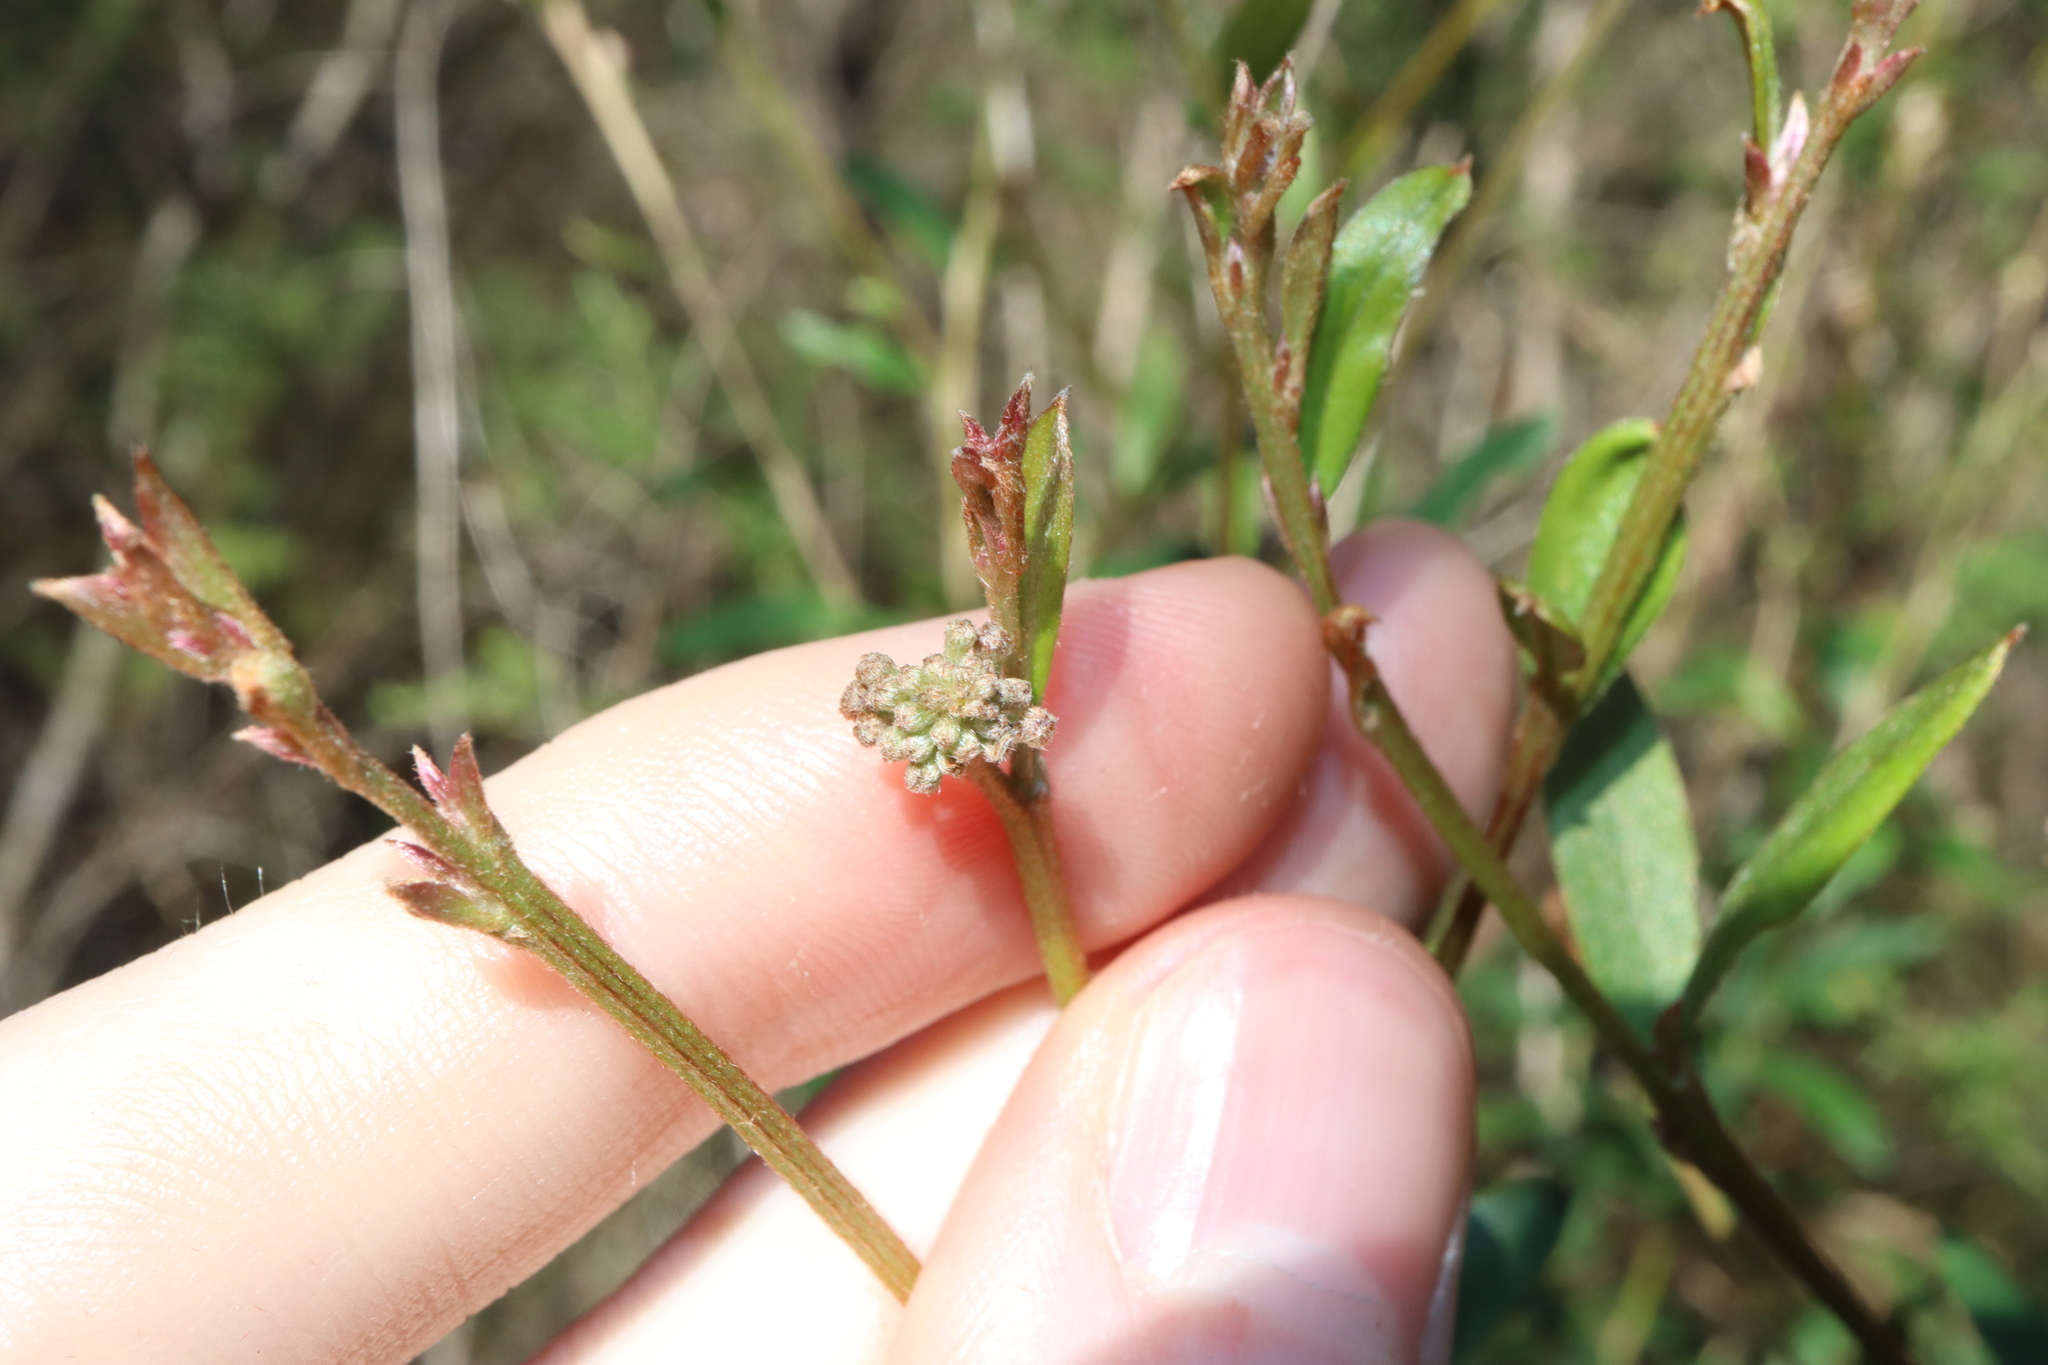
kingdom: Plantae
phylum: Tracheophyta
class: Magnoliopsida
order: Proteales
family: Proteaceae
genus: Grevillea
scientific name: Grevillea sericea
